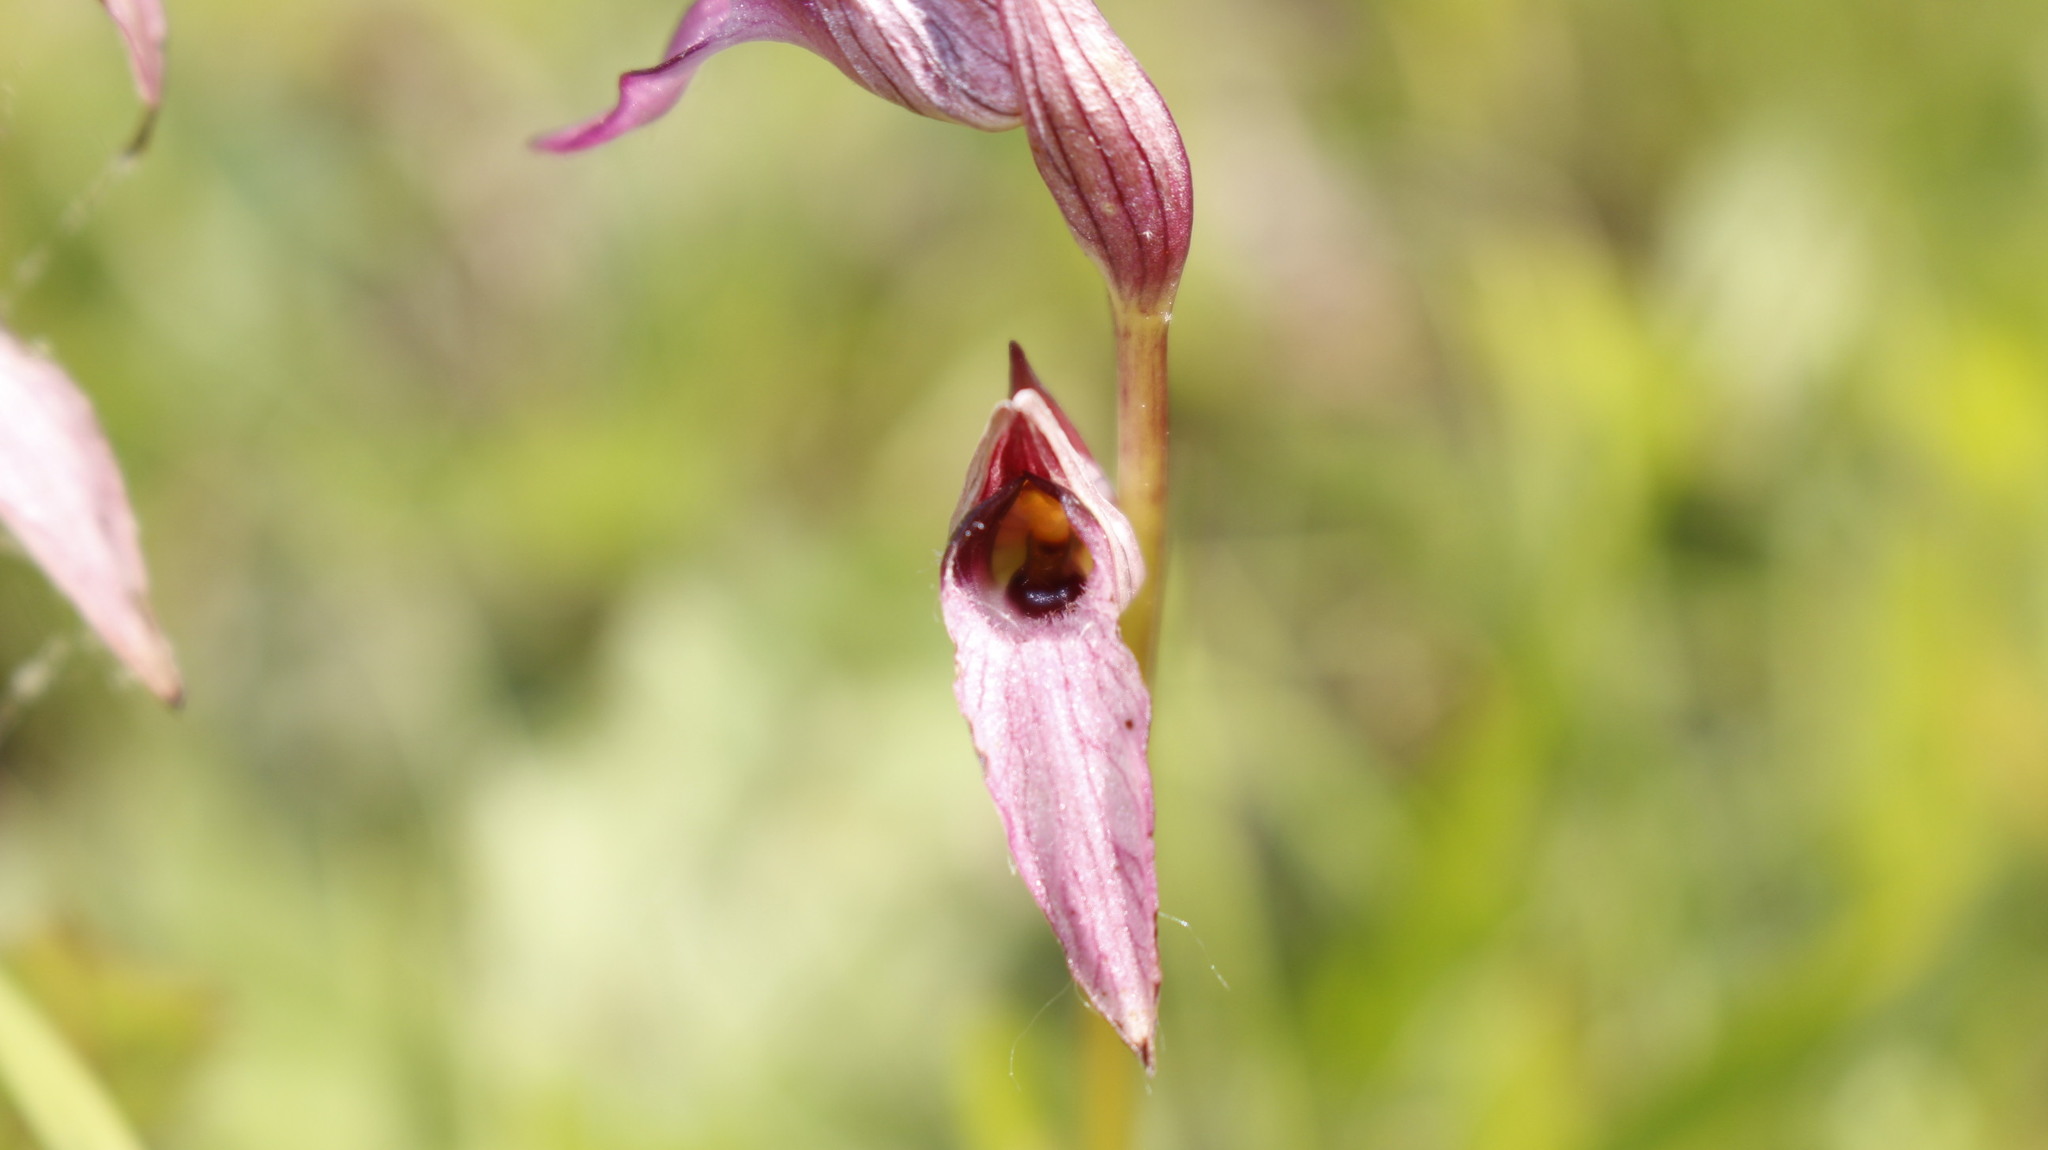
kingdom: Plantae
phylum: Tracheophyta
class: Liliopsida
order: Asparagales
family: Orchidaceae
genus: Serapias
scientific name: Serapias lingua
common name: Tongue-orchid
